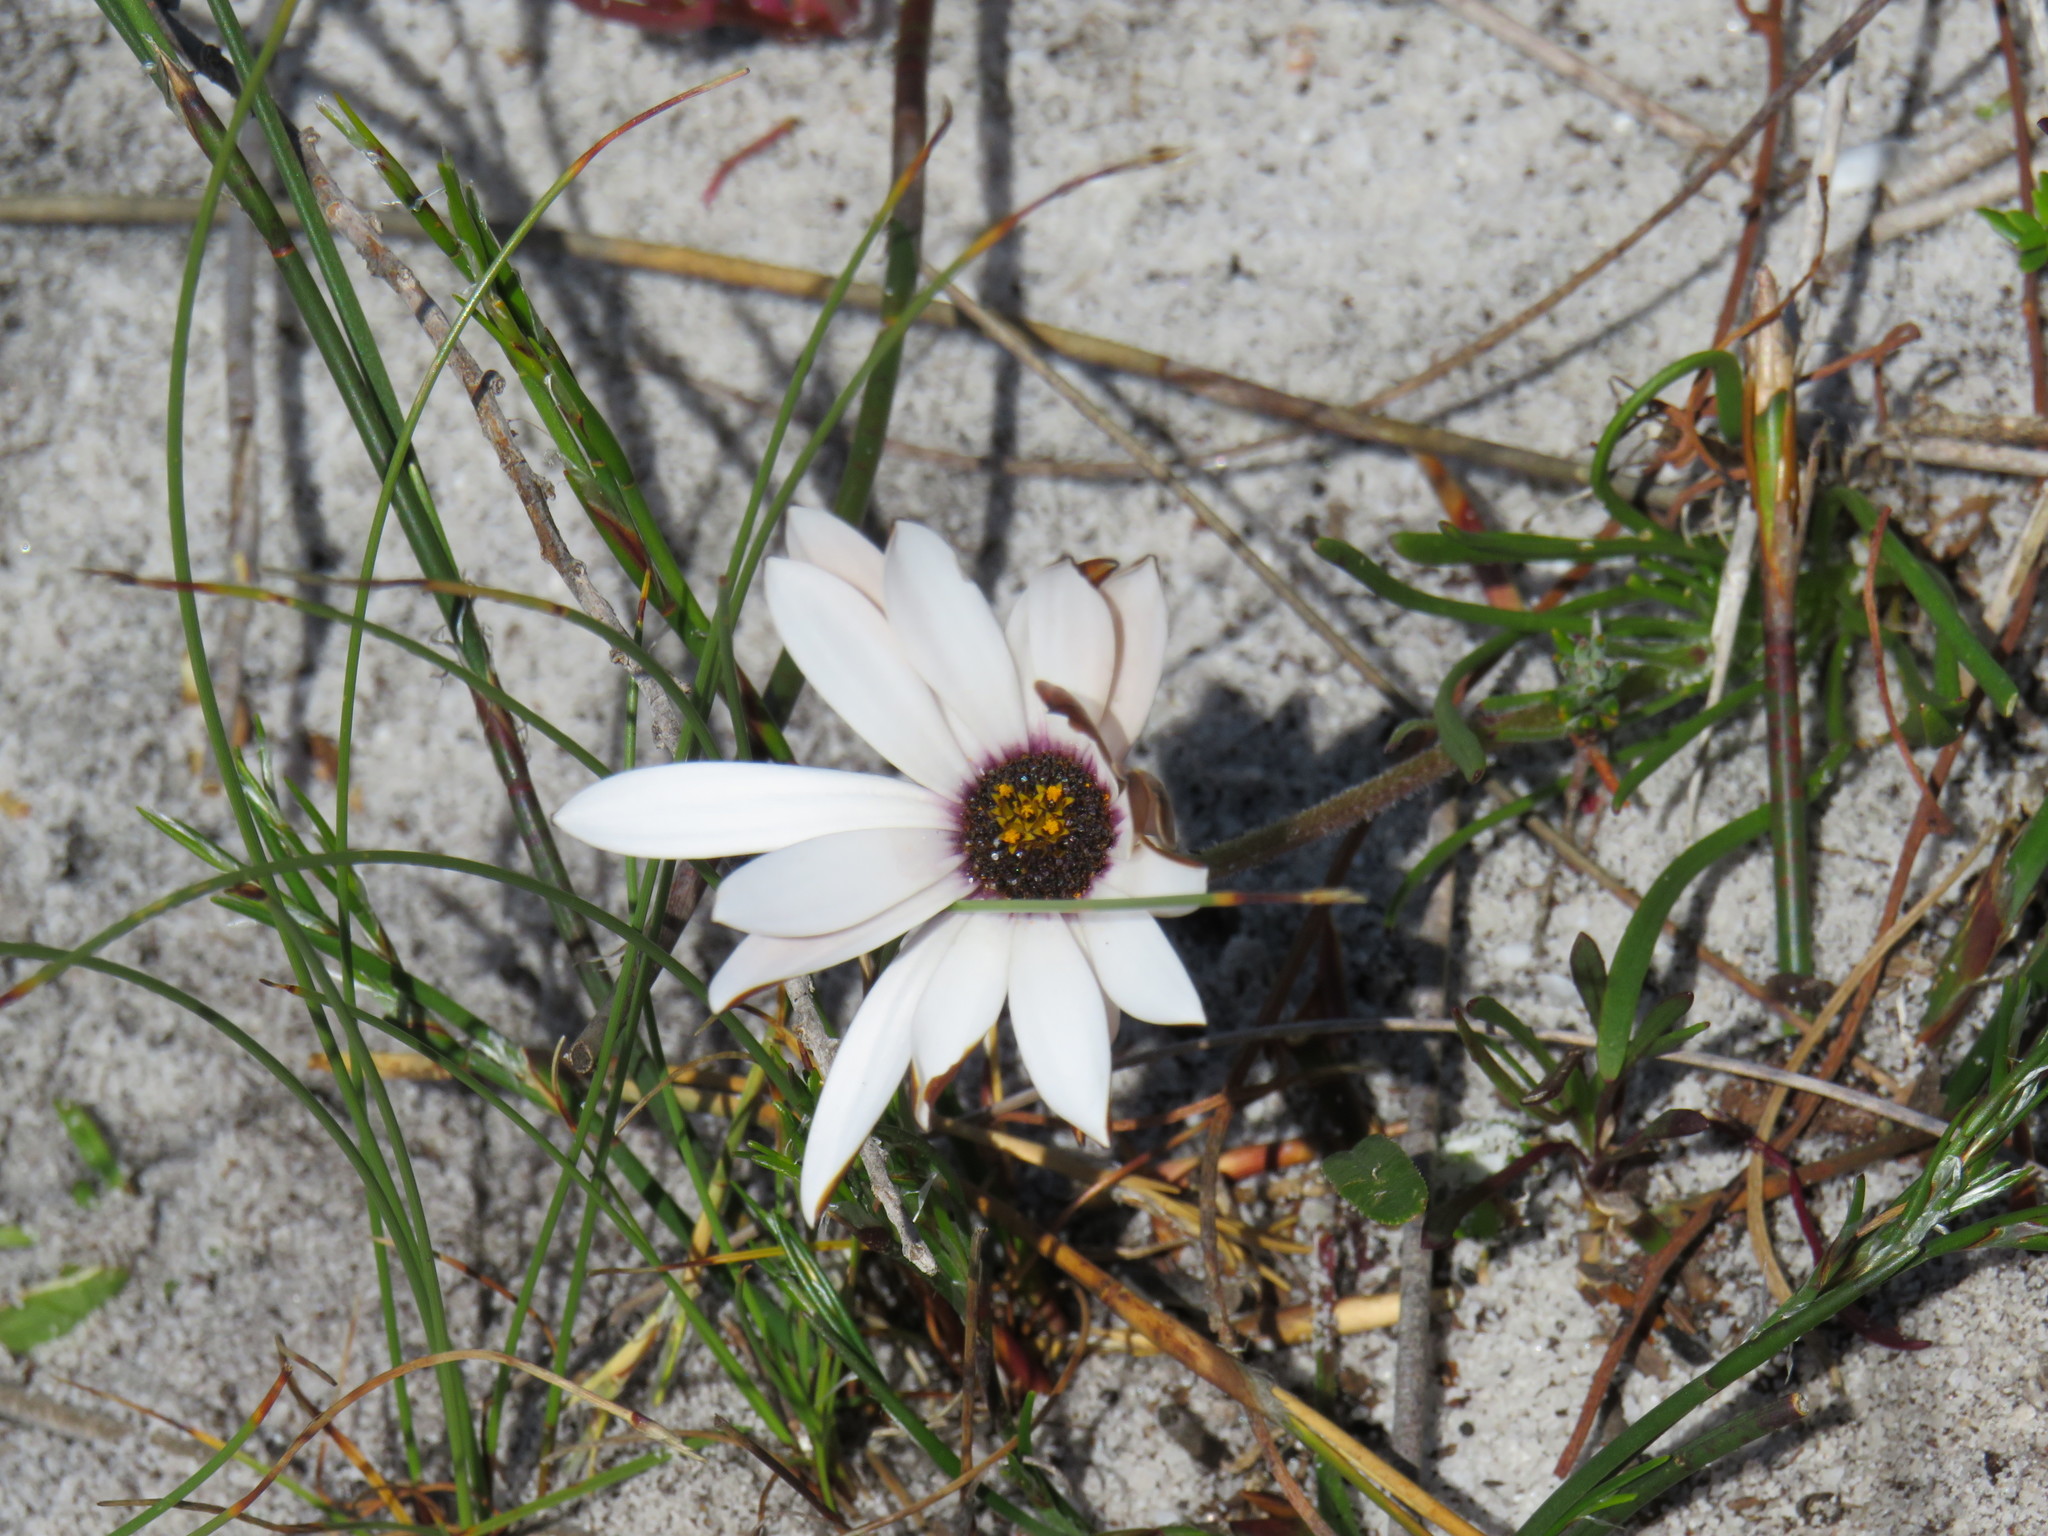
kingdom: Plantae
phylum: Tracheophyta
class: Magnoliopsida
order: Asterales
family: Asteraceae
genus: Dimorphotheca
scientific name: Dimorphotheca nudicaulis
